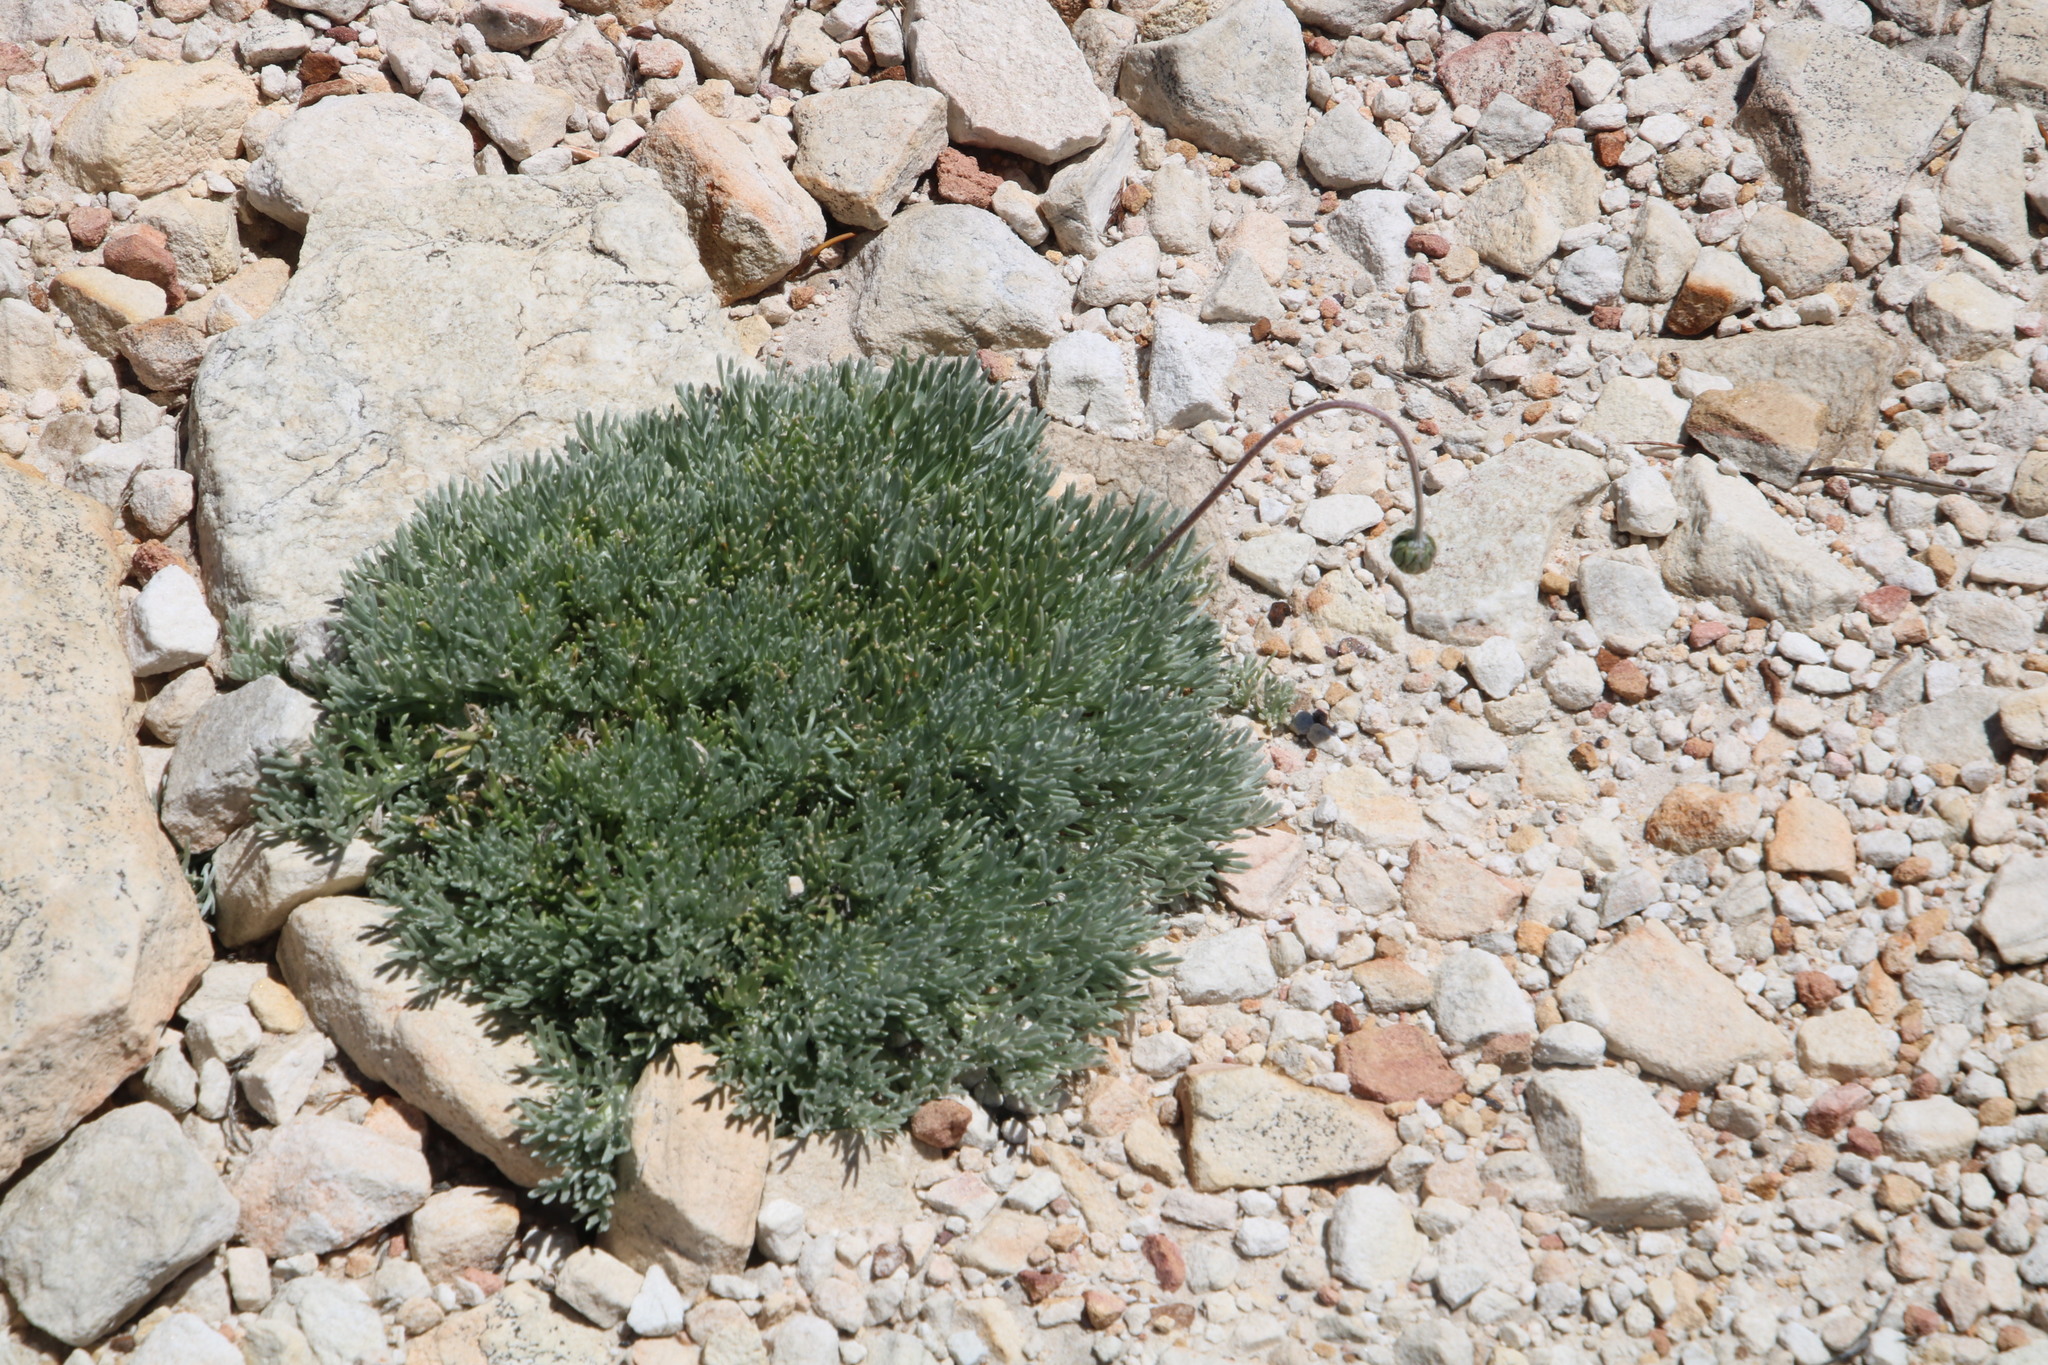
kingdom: Plantae
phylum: Tracheophyta
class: Magnoliopsida
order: Asterales
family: Asteraceae
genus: Ursinia
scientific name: Ursinia sericea
